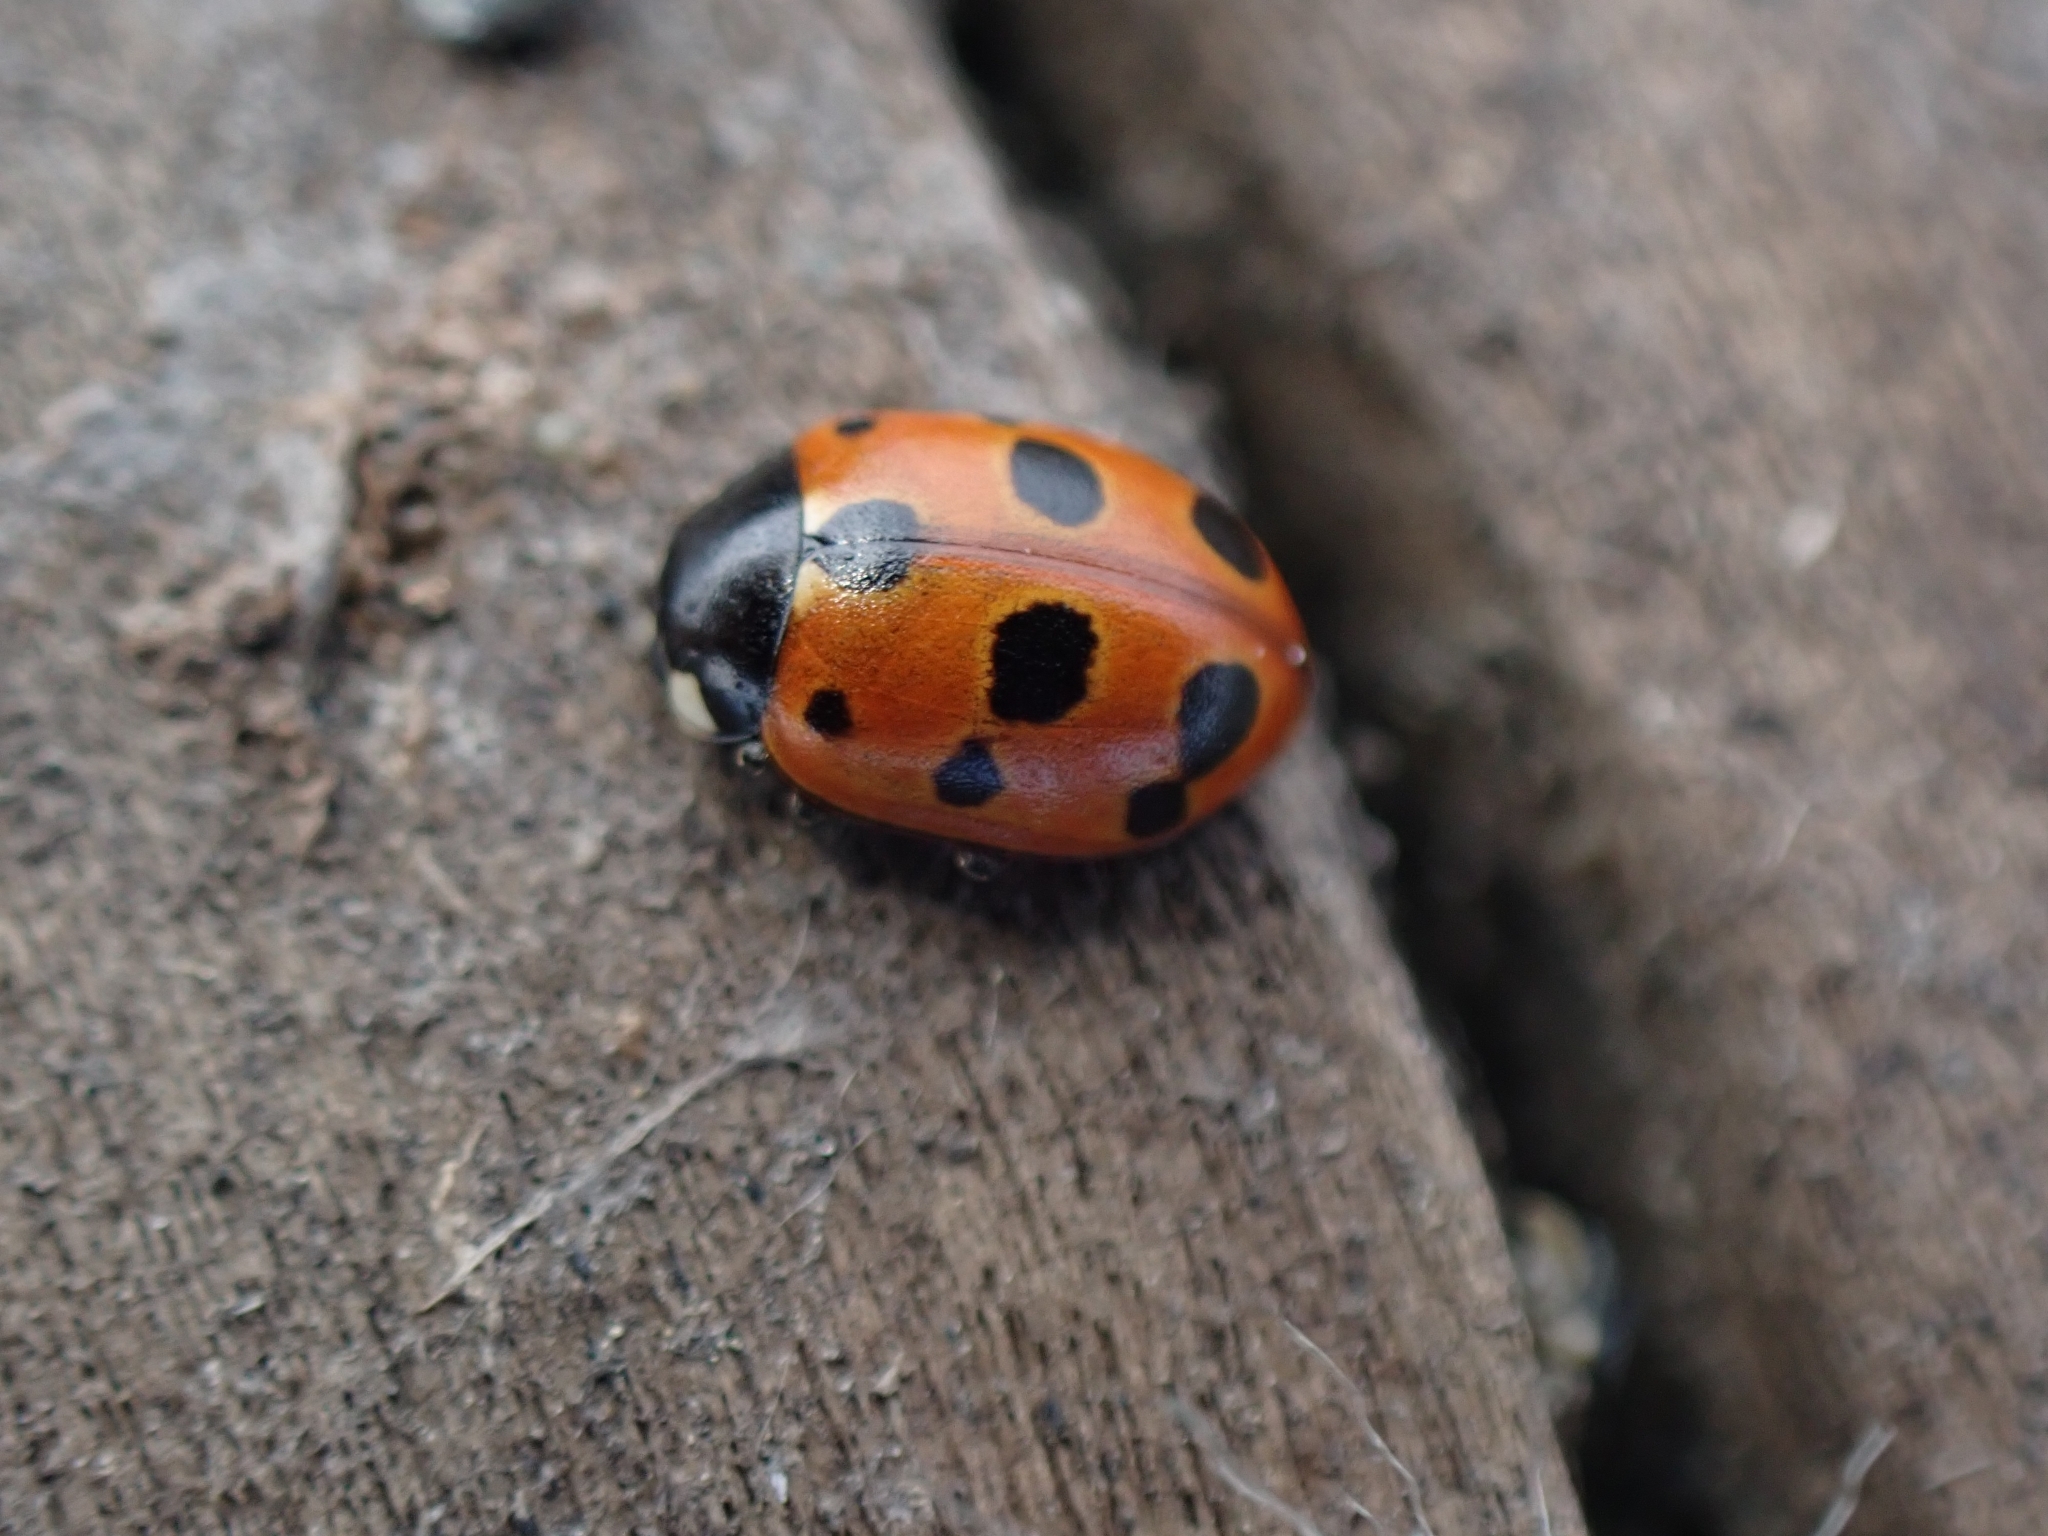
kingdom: Animalia
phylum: Arthropoda
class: Insecta
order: Coleoptera
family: Coccinellidae
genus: Coccinella
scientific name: Coccinella undecimpunctata
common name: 11-spot ladybird
